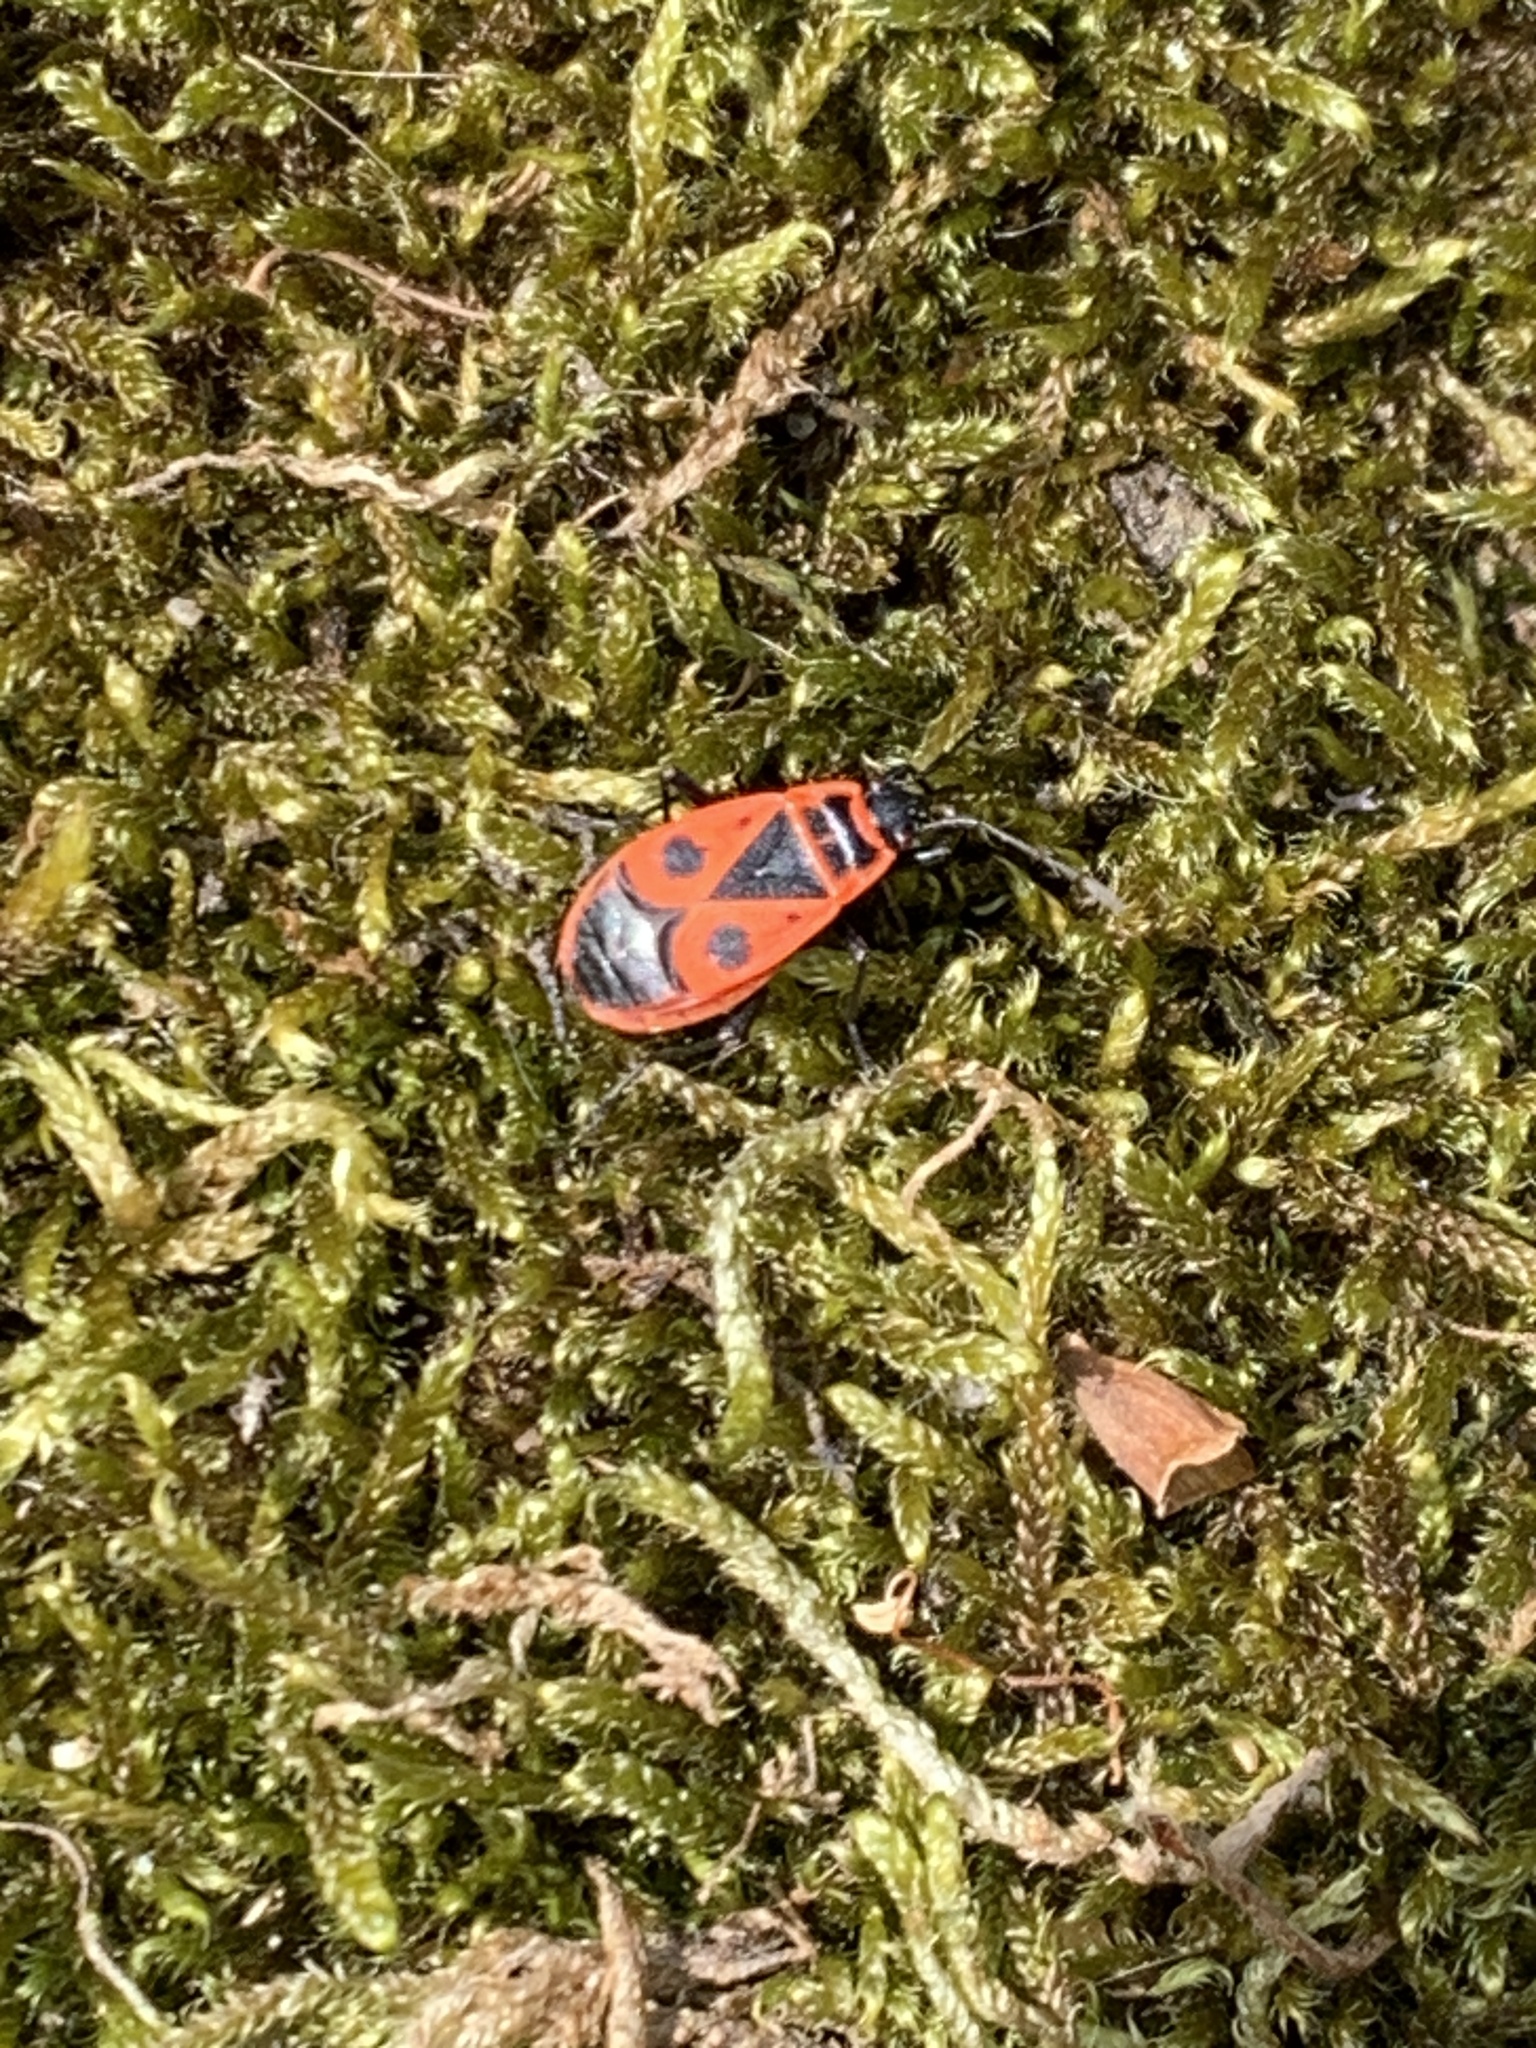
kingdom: Animalia
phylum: Arthropoda
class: Insecta
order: Hemiptera
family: Pyrrhocoridae
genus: Pyrrhocoris
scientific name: Pyrrhocoris apterus
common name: Firebug
